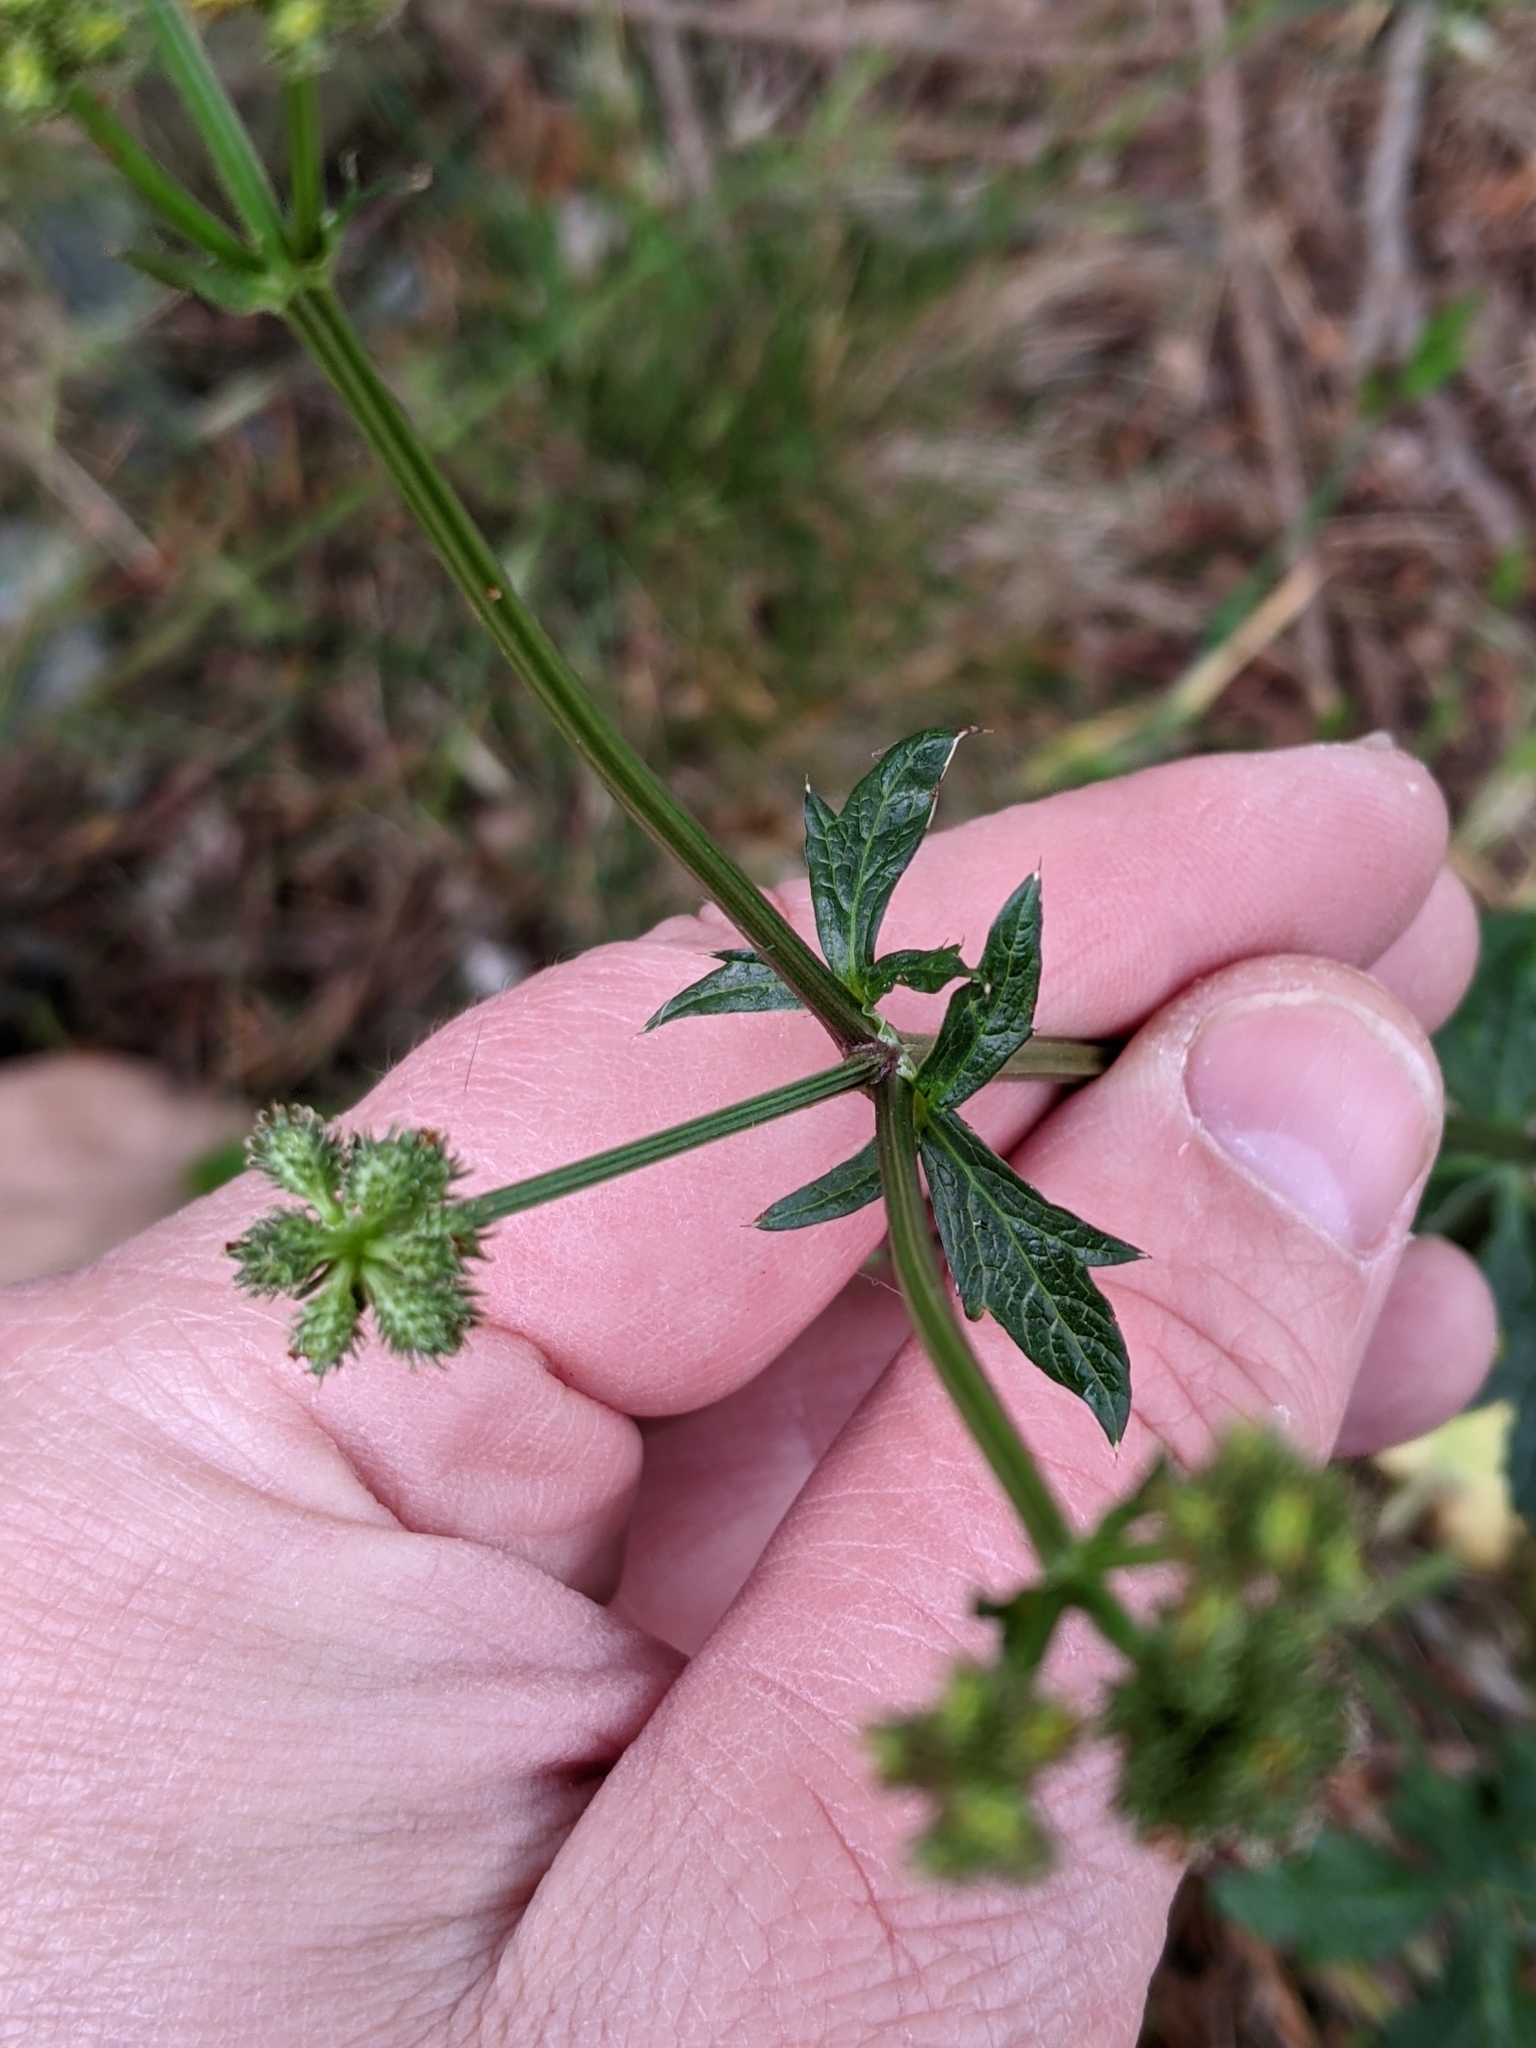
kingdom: Plantae
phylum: Tracheophyta
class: Magnoliopsida
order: Apiales
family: Apiaceae
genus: Sanicula
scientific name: Sanicula crassicaulis
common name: Western snakeroot
